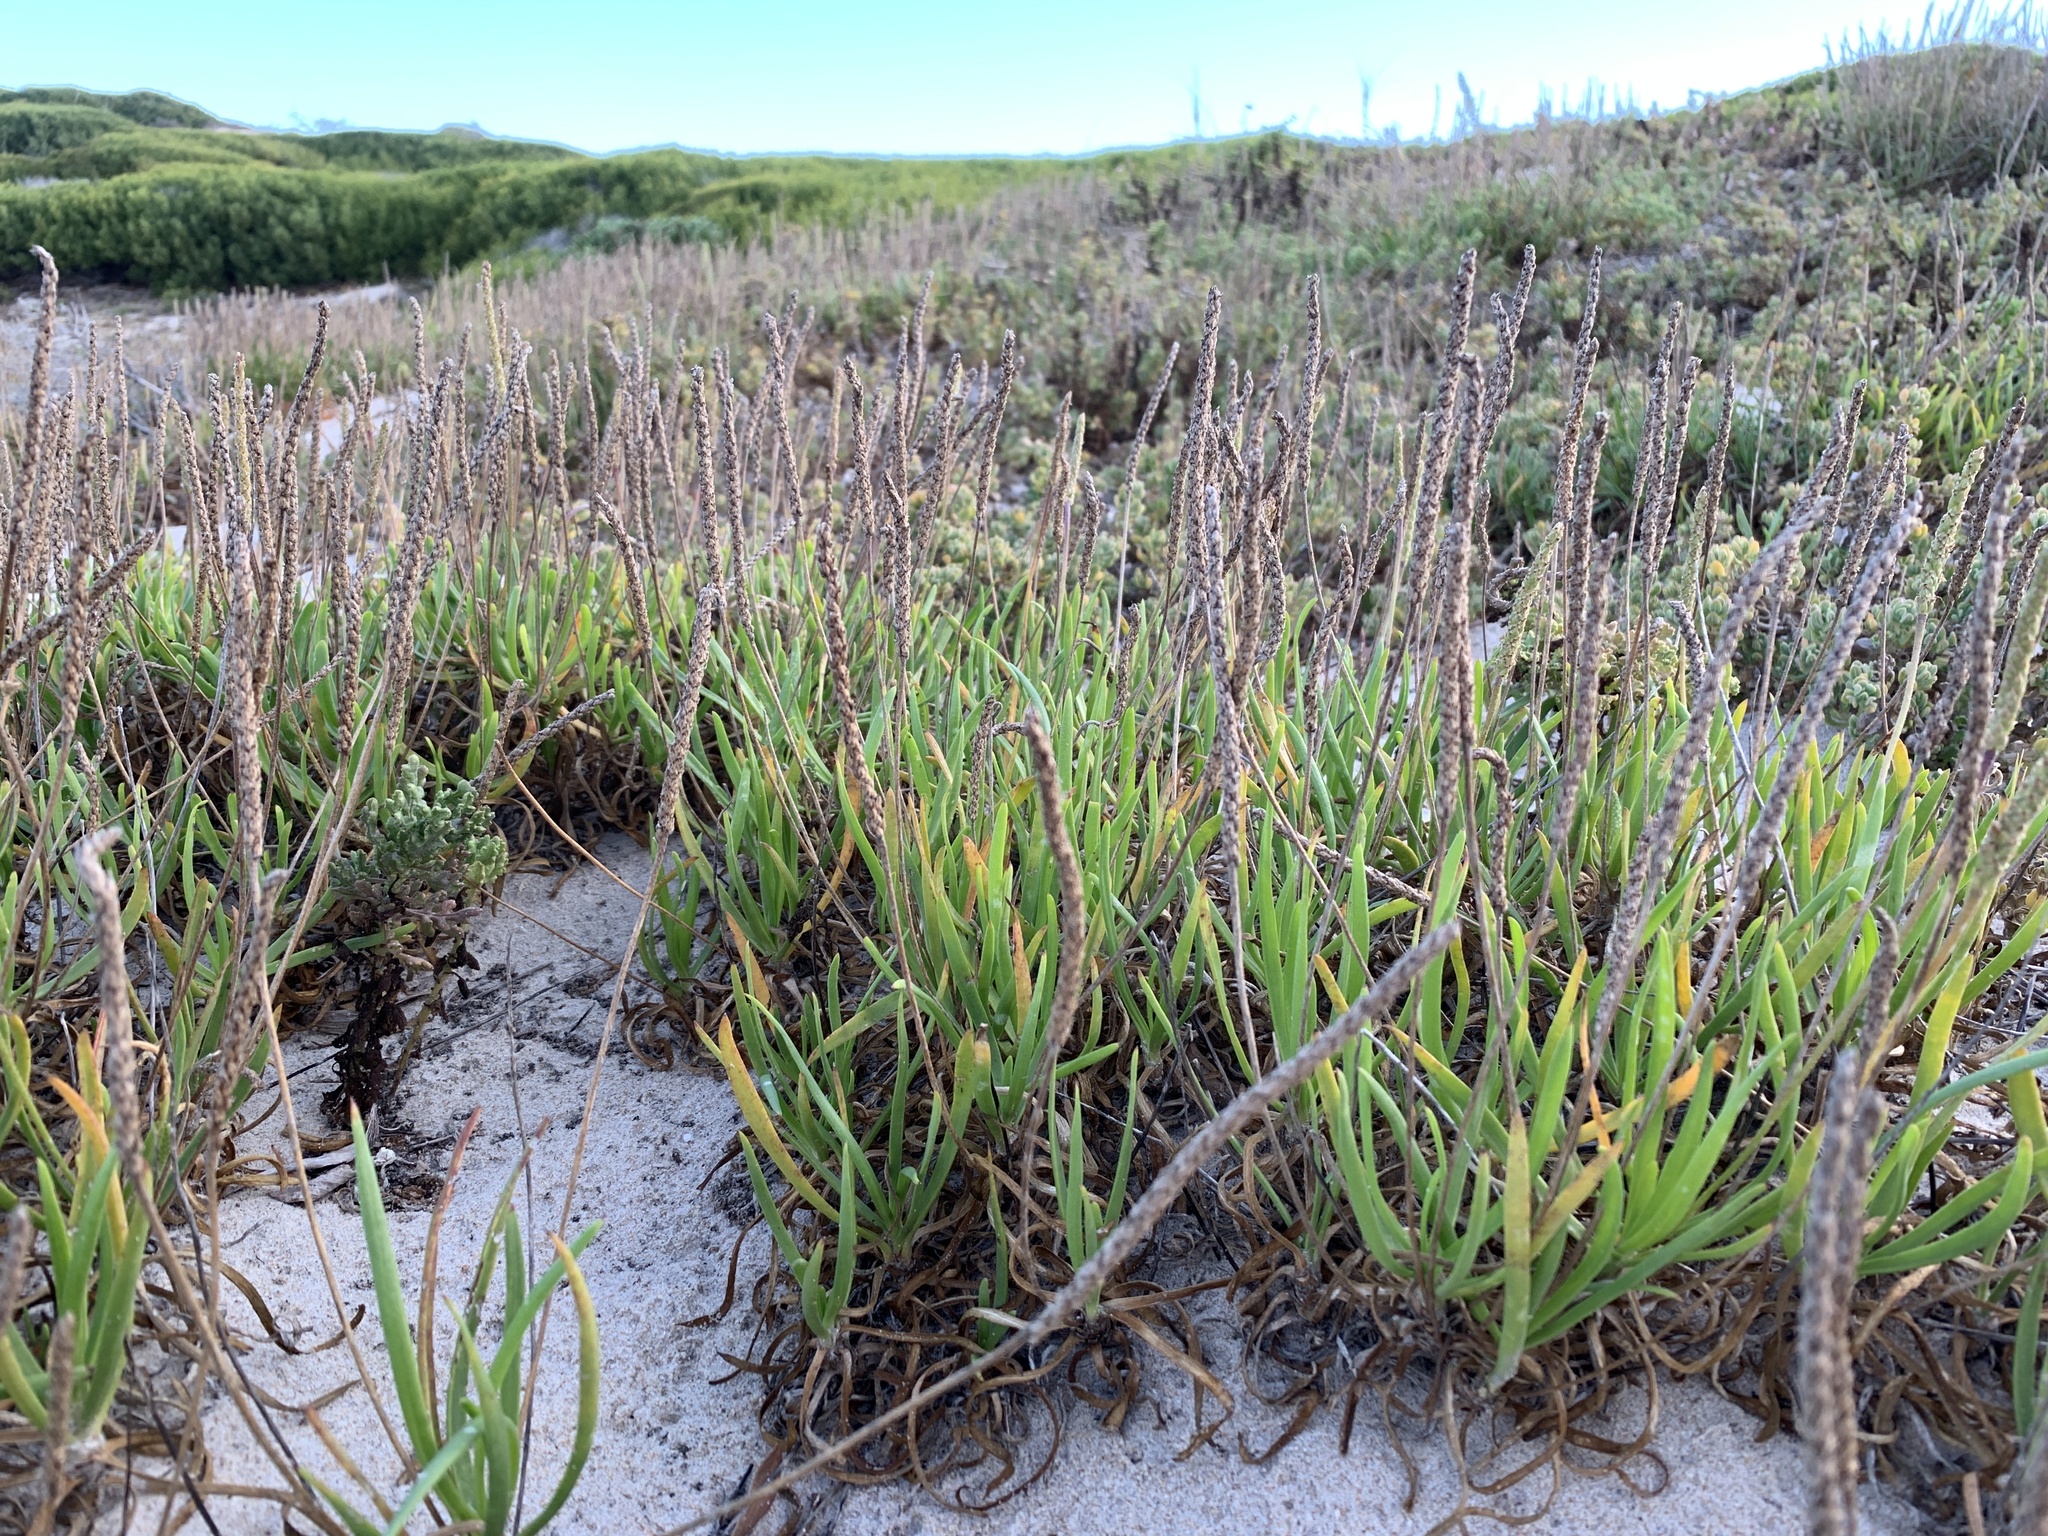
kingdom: Plantae
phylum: Tracheophyta
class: Magnoliopsida
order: Lamiales
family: Plantaginaceae
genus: Plantago
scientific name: Plantago carnosa
